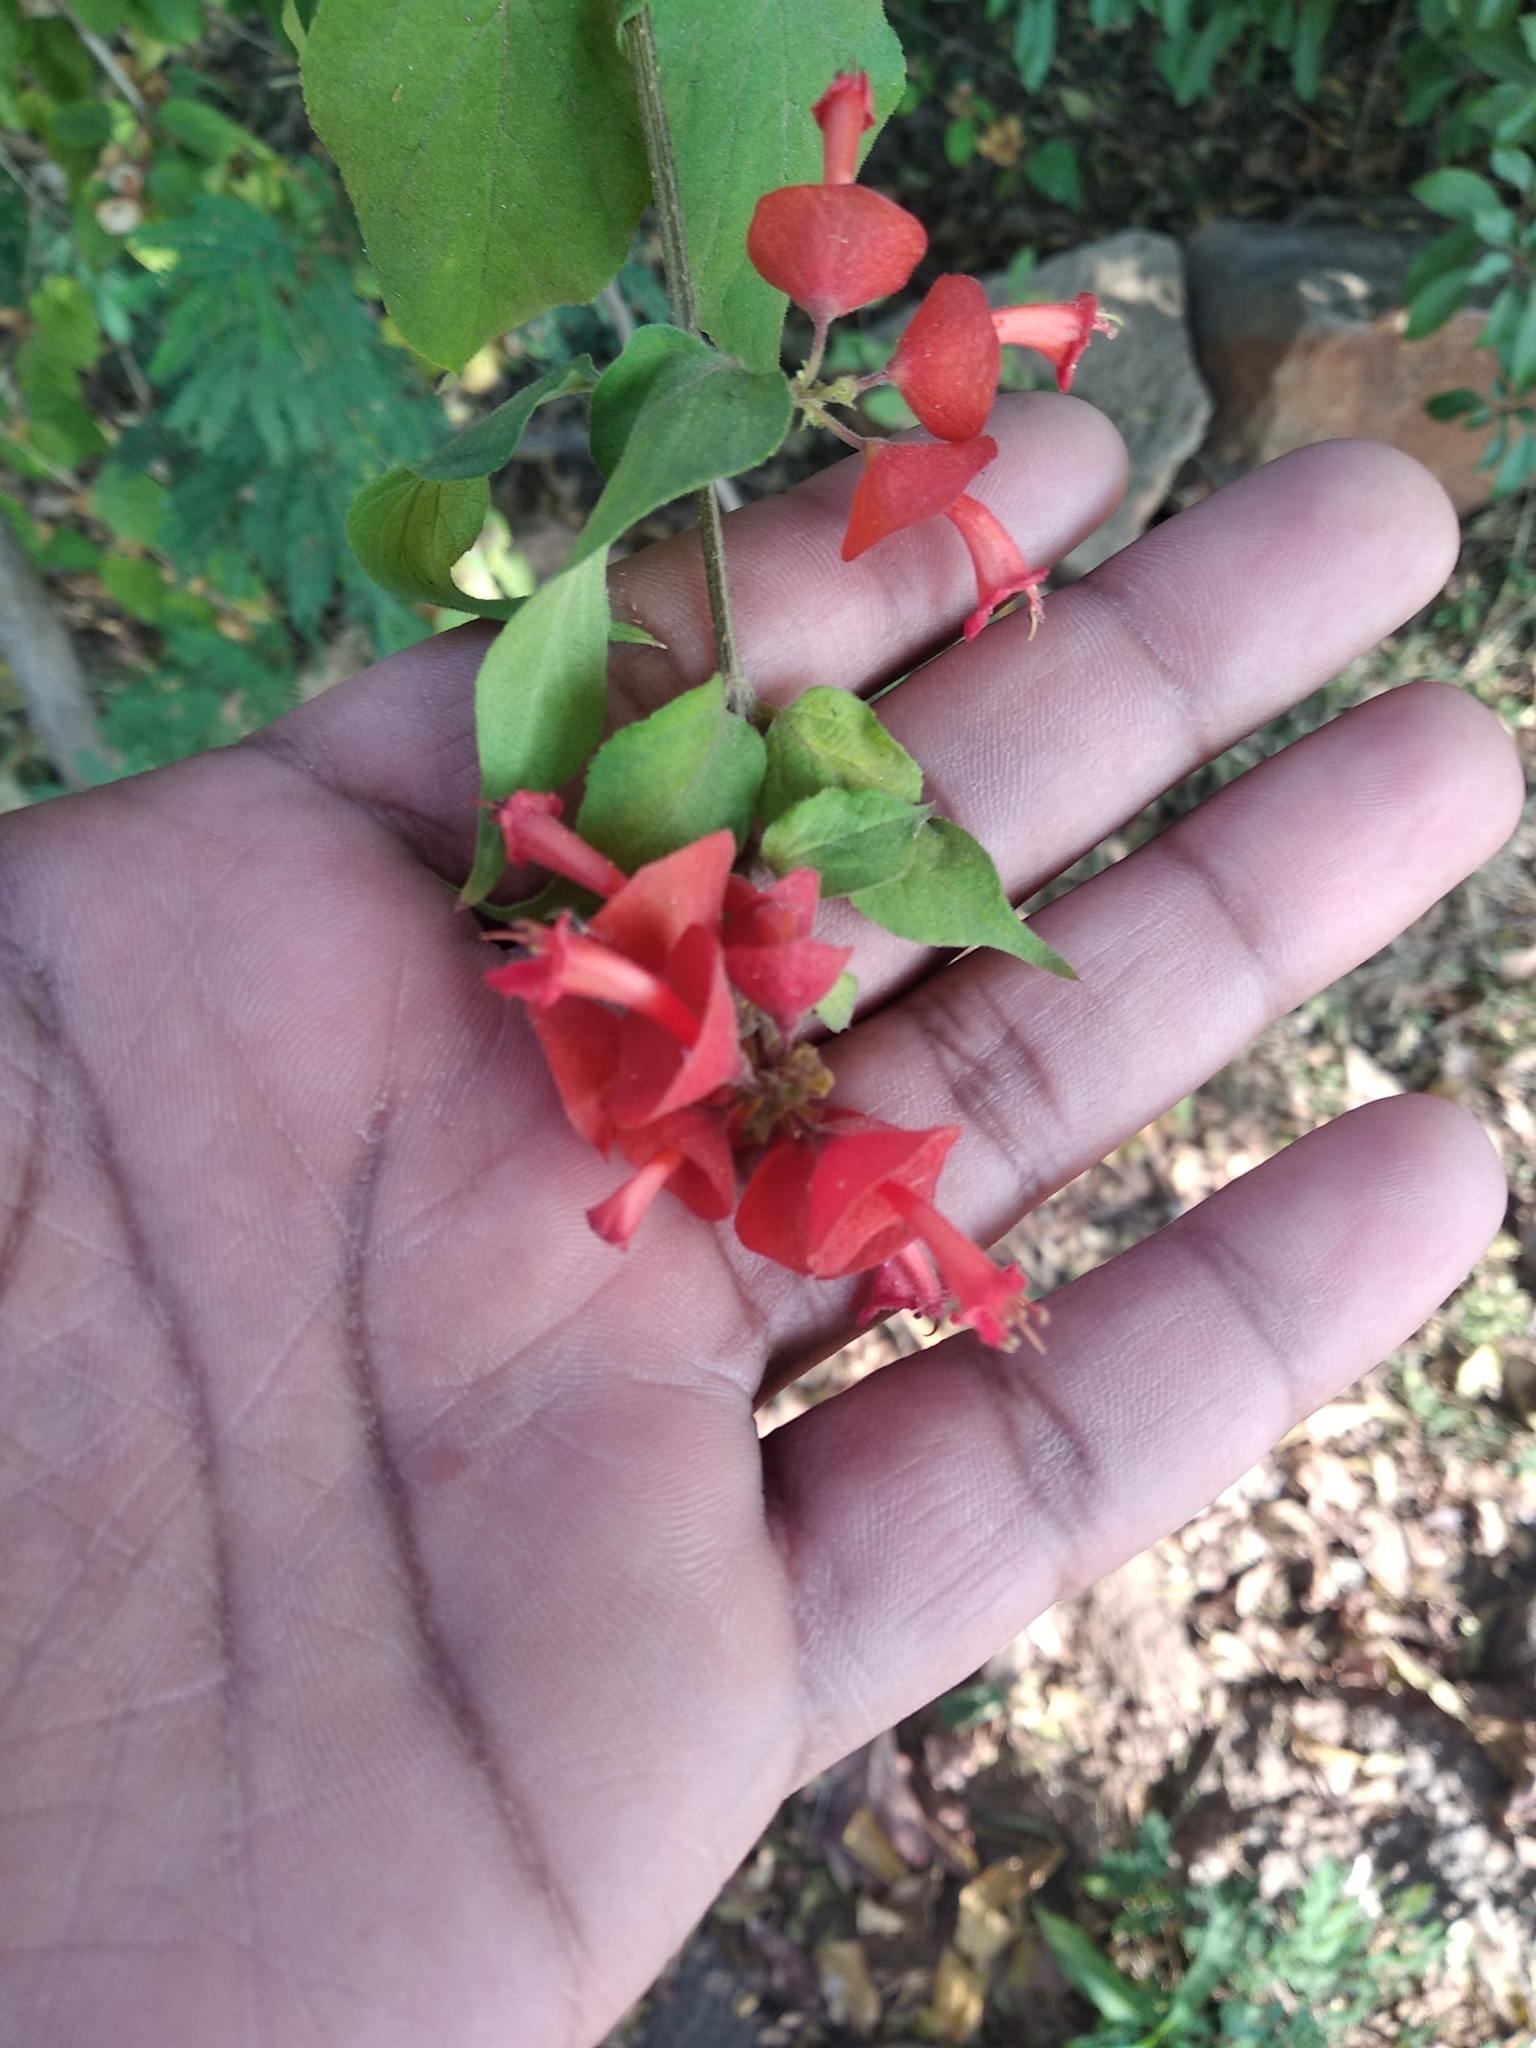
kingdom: Plantae
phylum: Tracheophyta
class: Magnoliopsida
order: Lamiales
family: Lamiaceae
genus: Holmskioldia
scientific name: Holmskioldia sanguinea
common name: Chinese hatplant
